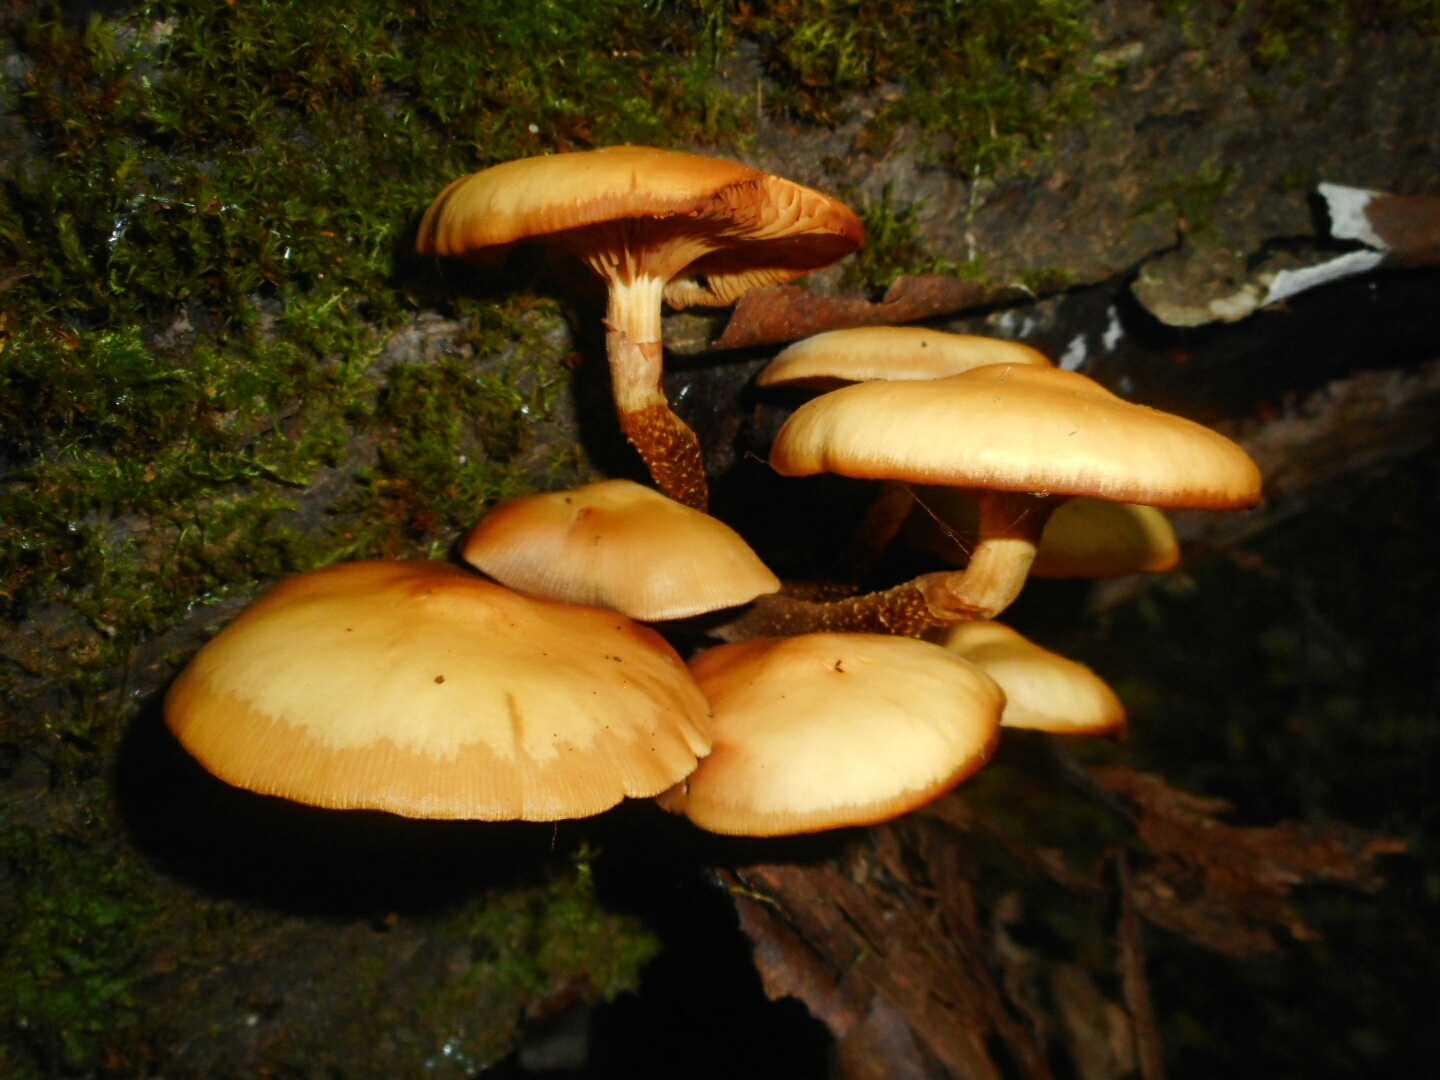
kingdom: Fungi
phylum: Basidiomycota
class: Agaricomycetes
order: Agaricales
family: Strophariaceae
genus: Kuehneromyces
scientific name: Kuehneromyces mutabilis
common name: Sheathed woodtuft
